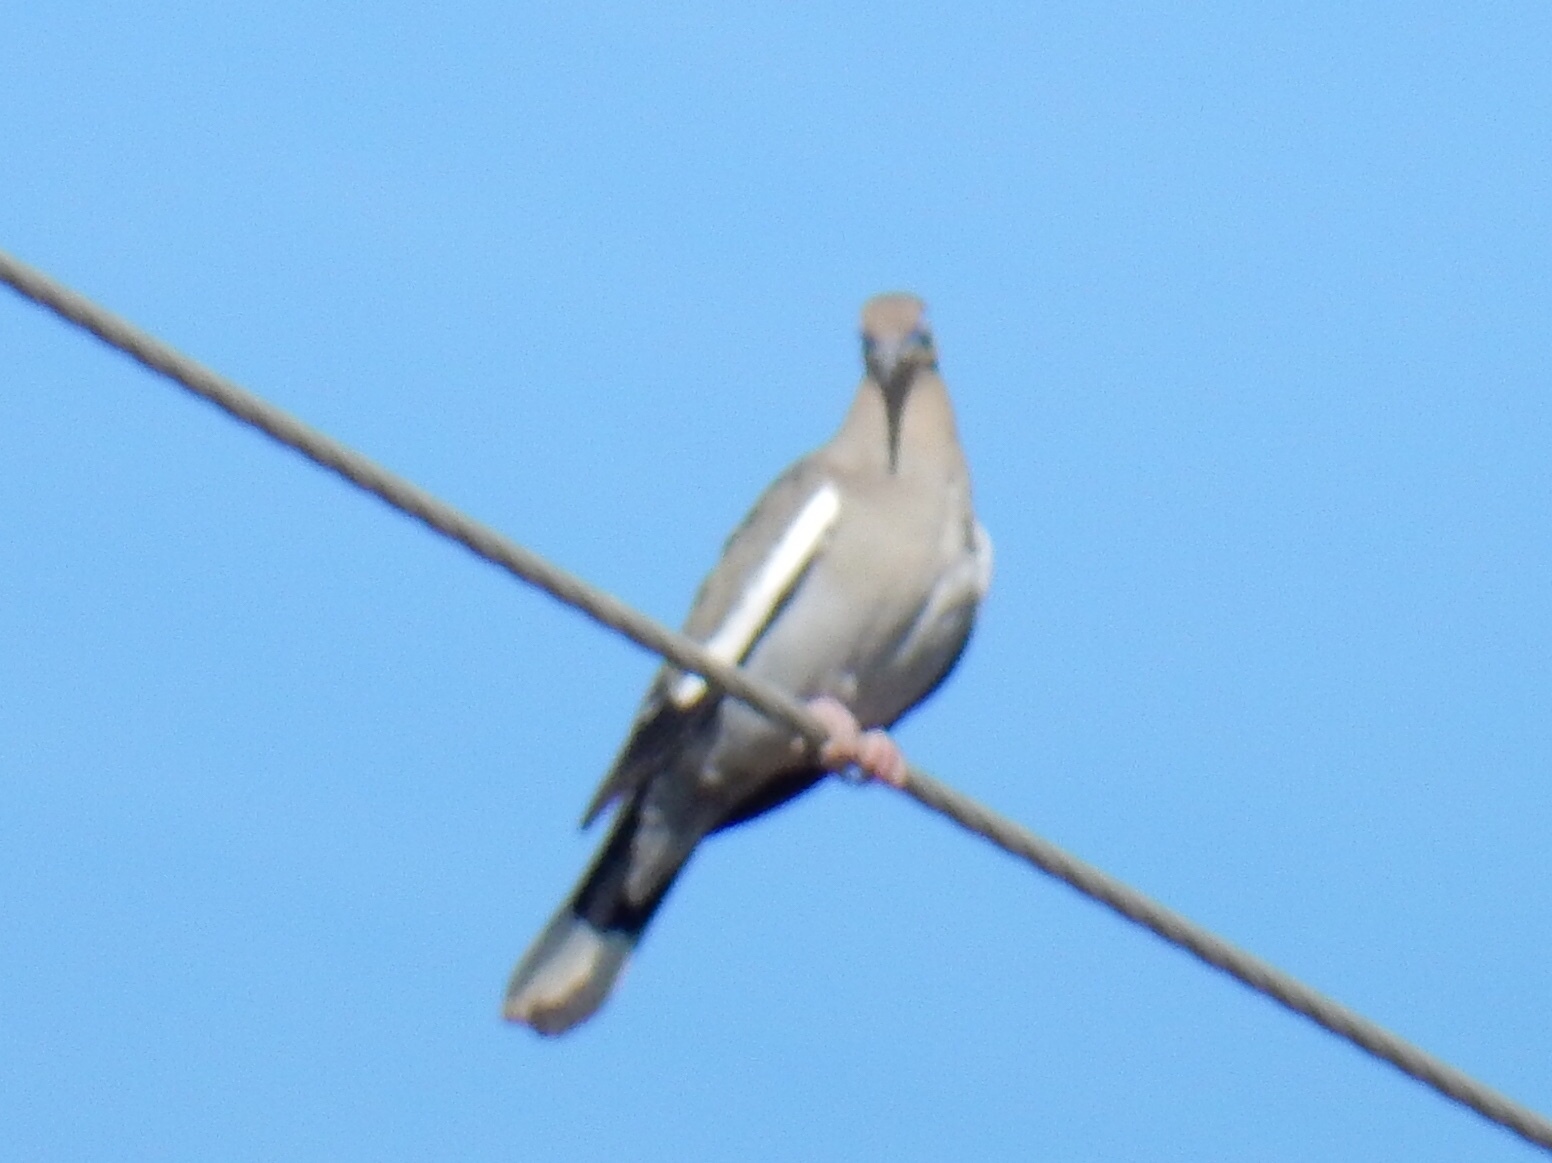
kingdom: Animalia
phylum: Chordata
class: Aves
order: Columbiformes
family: Columbidae
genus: Zenaida
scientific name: Zenaida asiatica
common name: White-winged dove
